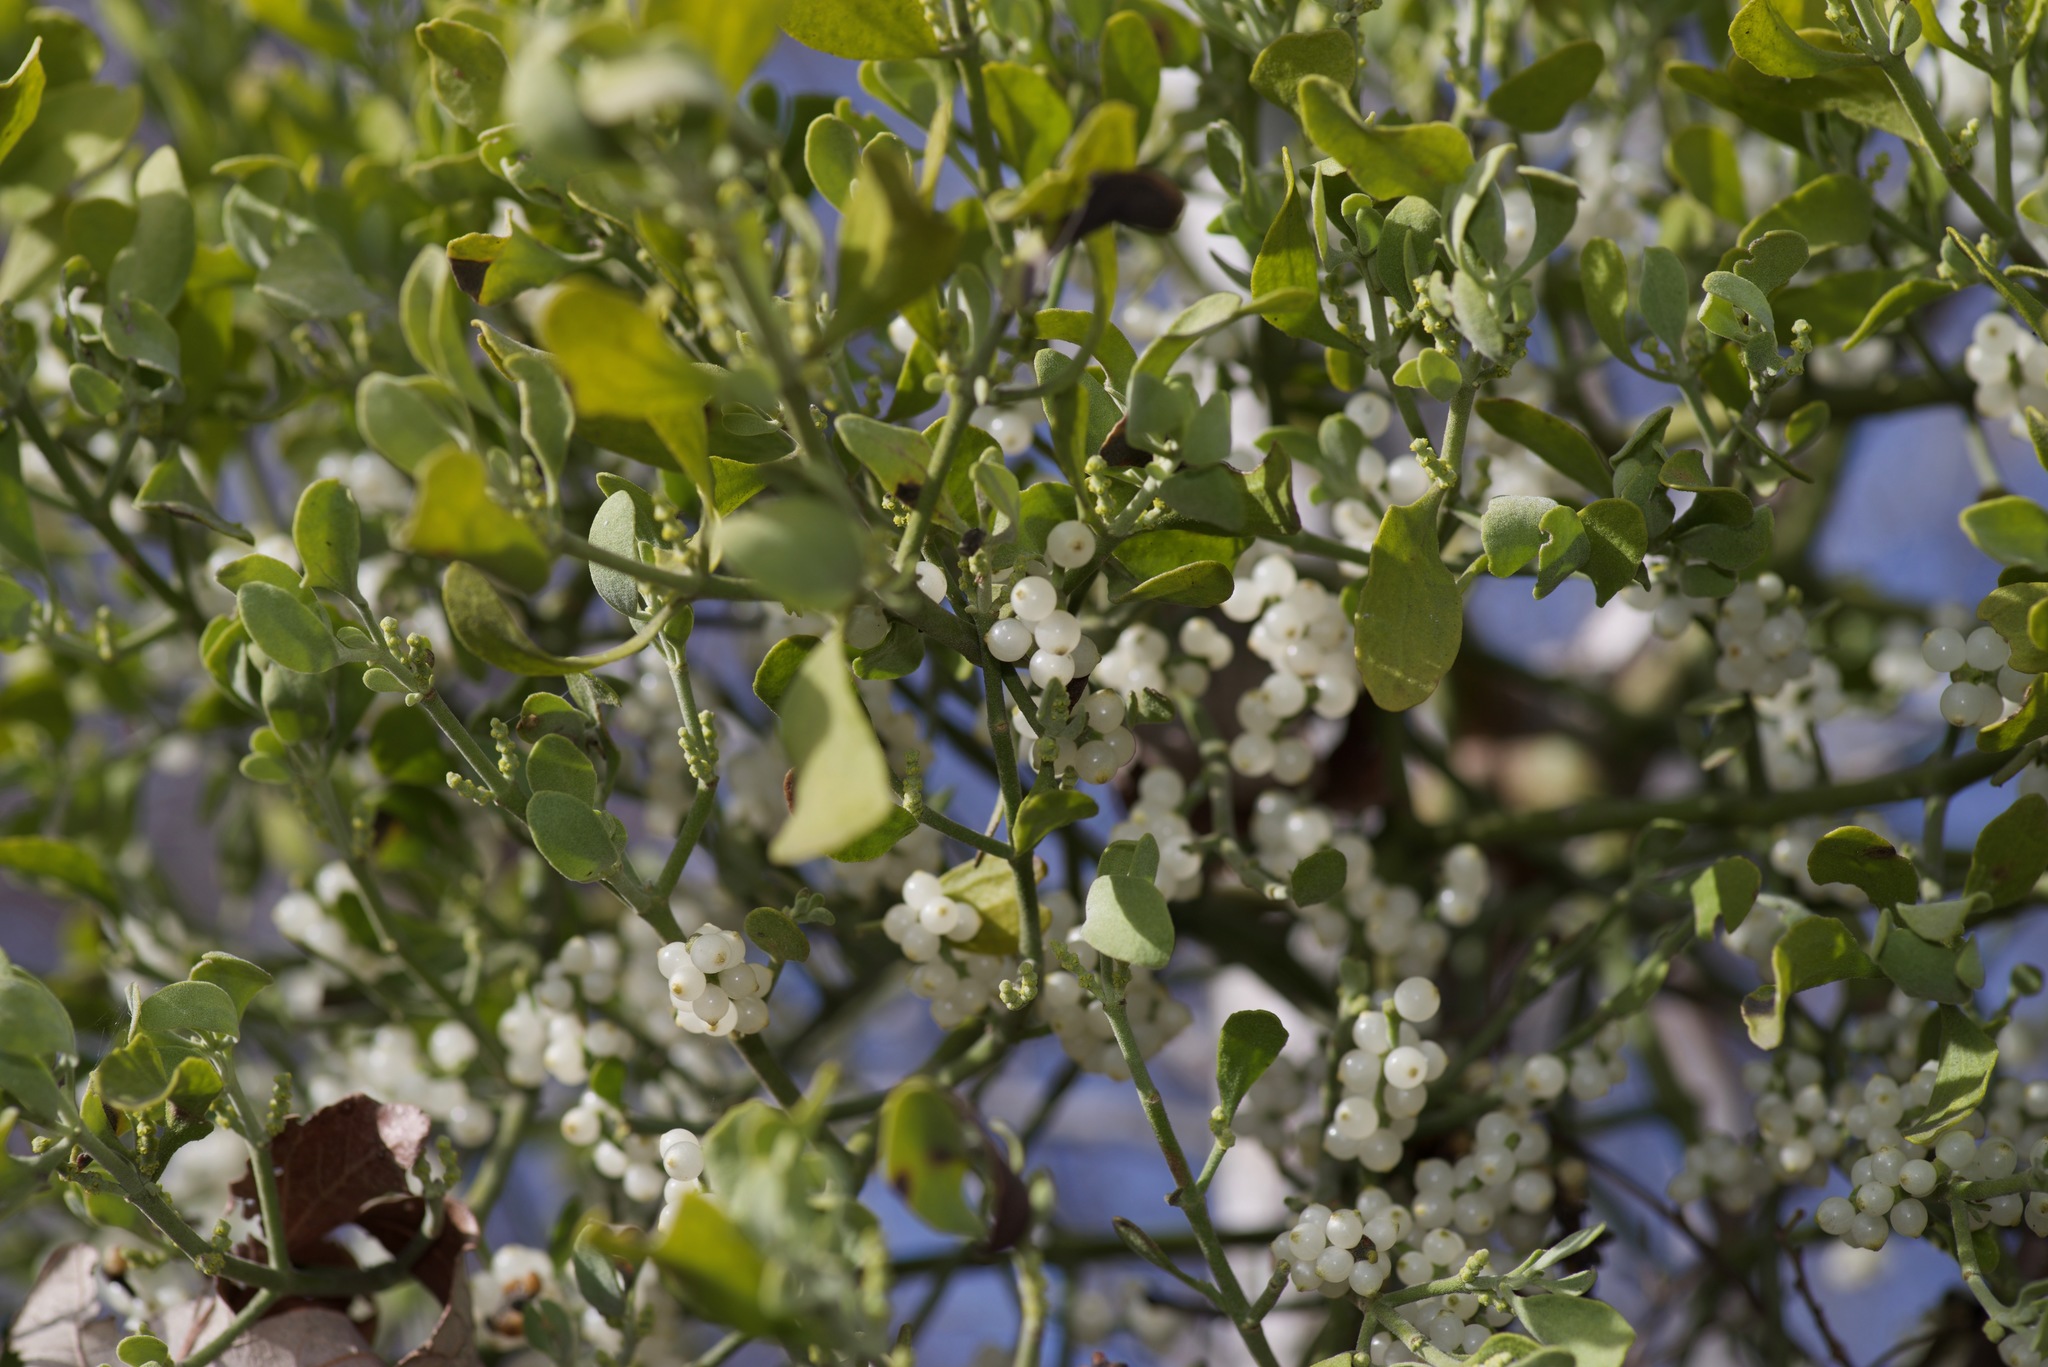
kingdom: Plantae
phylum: Tracheophyta
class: Magnoliopsida
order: Santalales
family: Viscaceae
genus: Phoradendron
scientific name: Phoradendron leucarpum
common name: Pacific mistletoe
